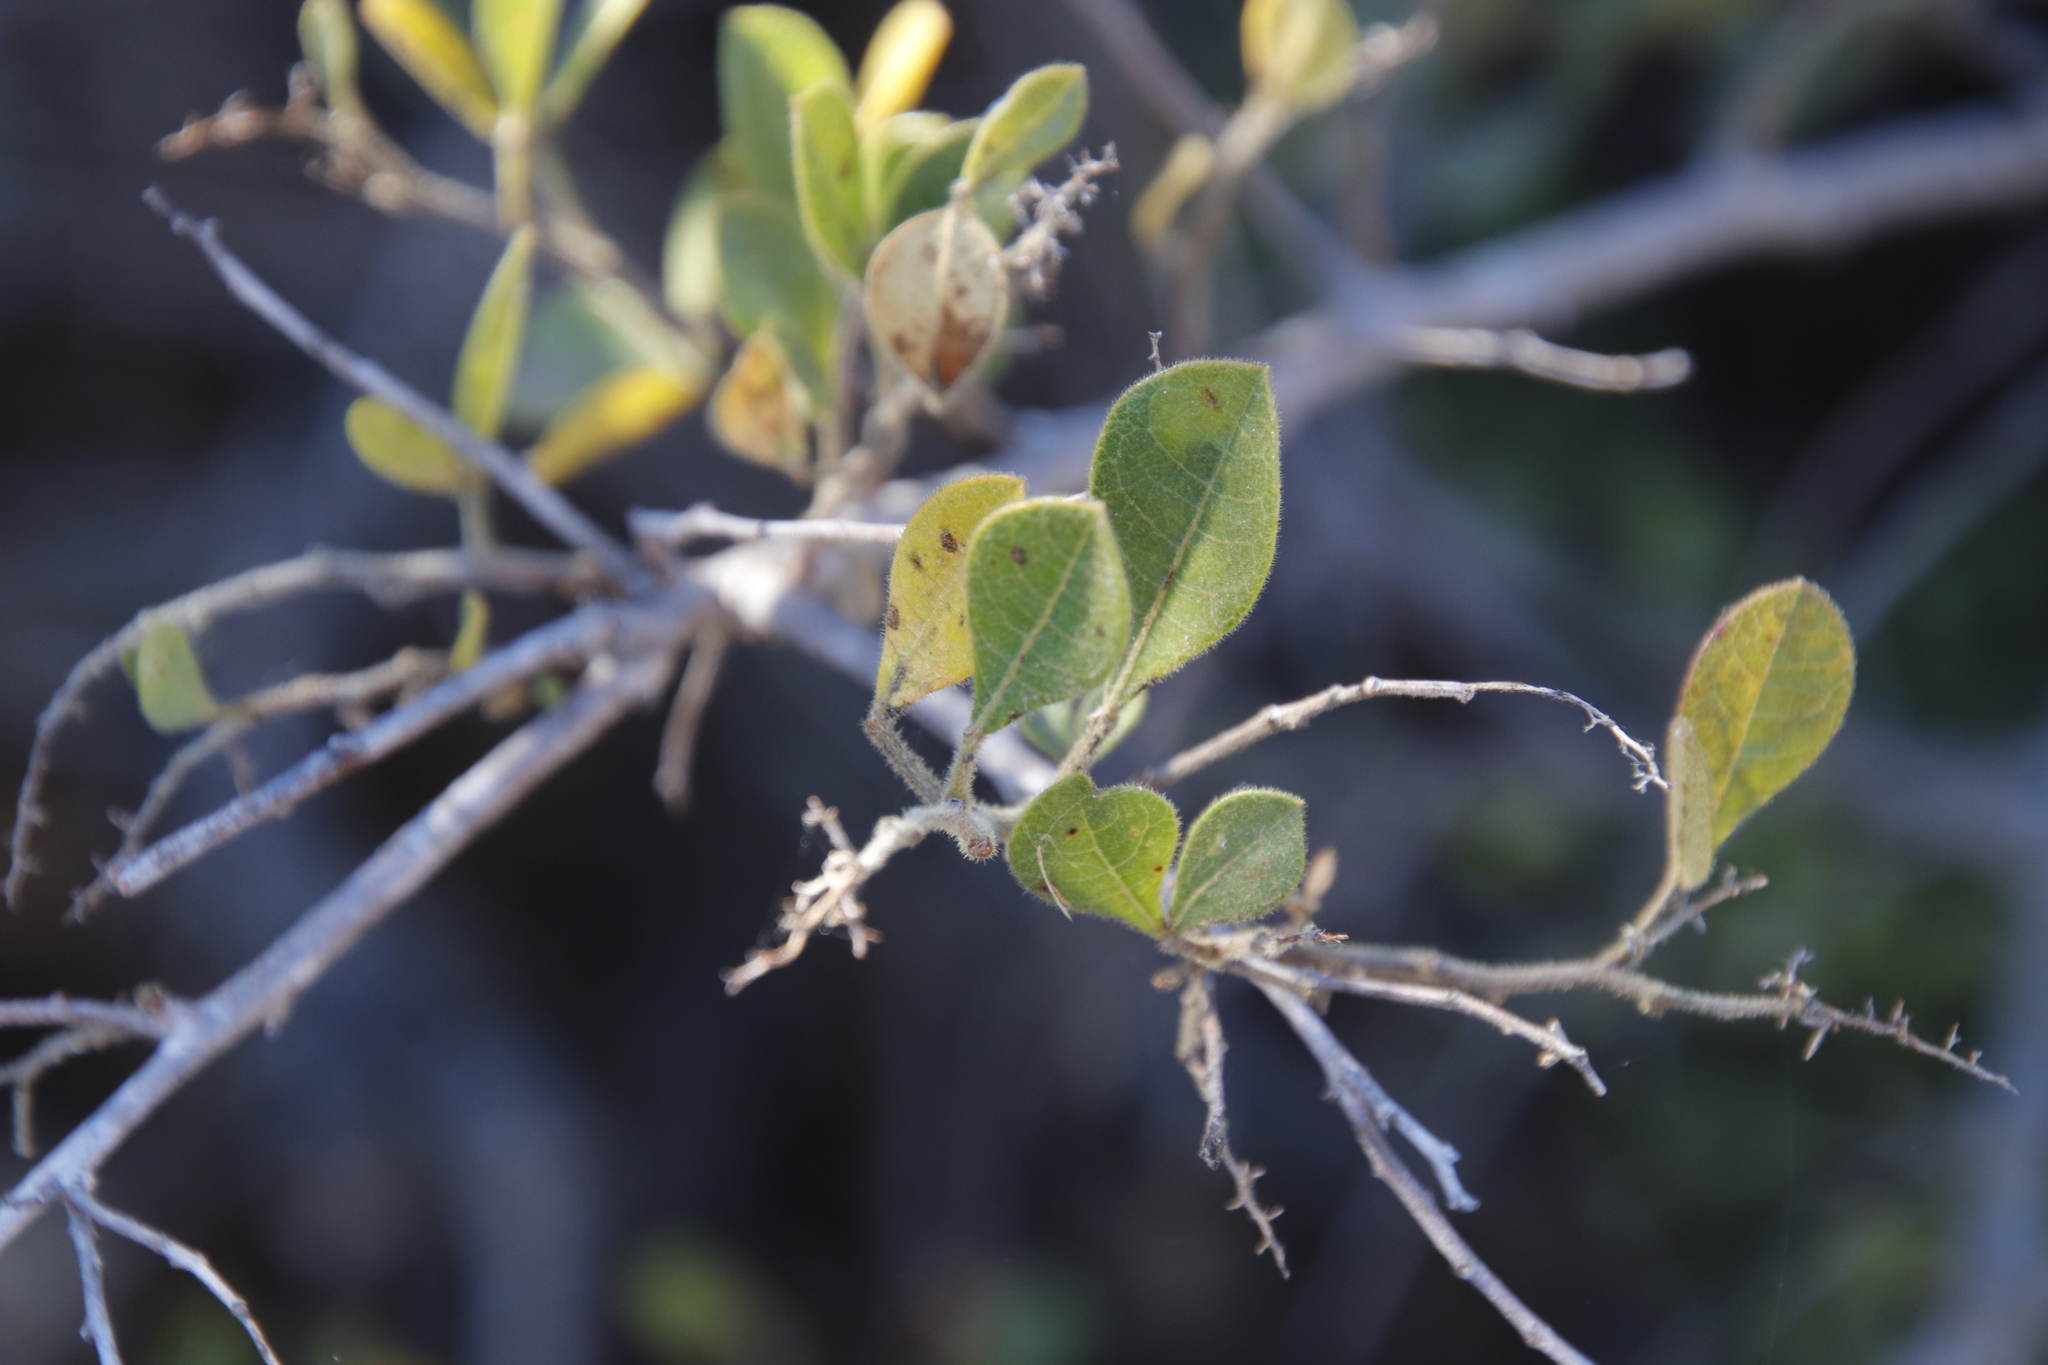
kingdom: Plantae
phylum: Tracheophyta
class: Magnoliopsida
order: Sapindales
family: Anacardiaceae
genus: Searsia
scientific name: Searsia laevigata
